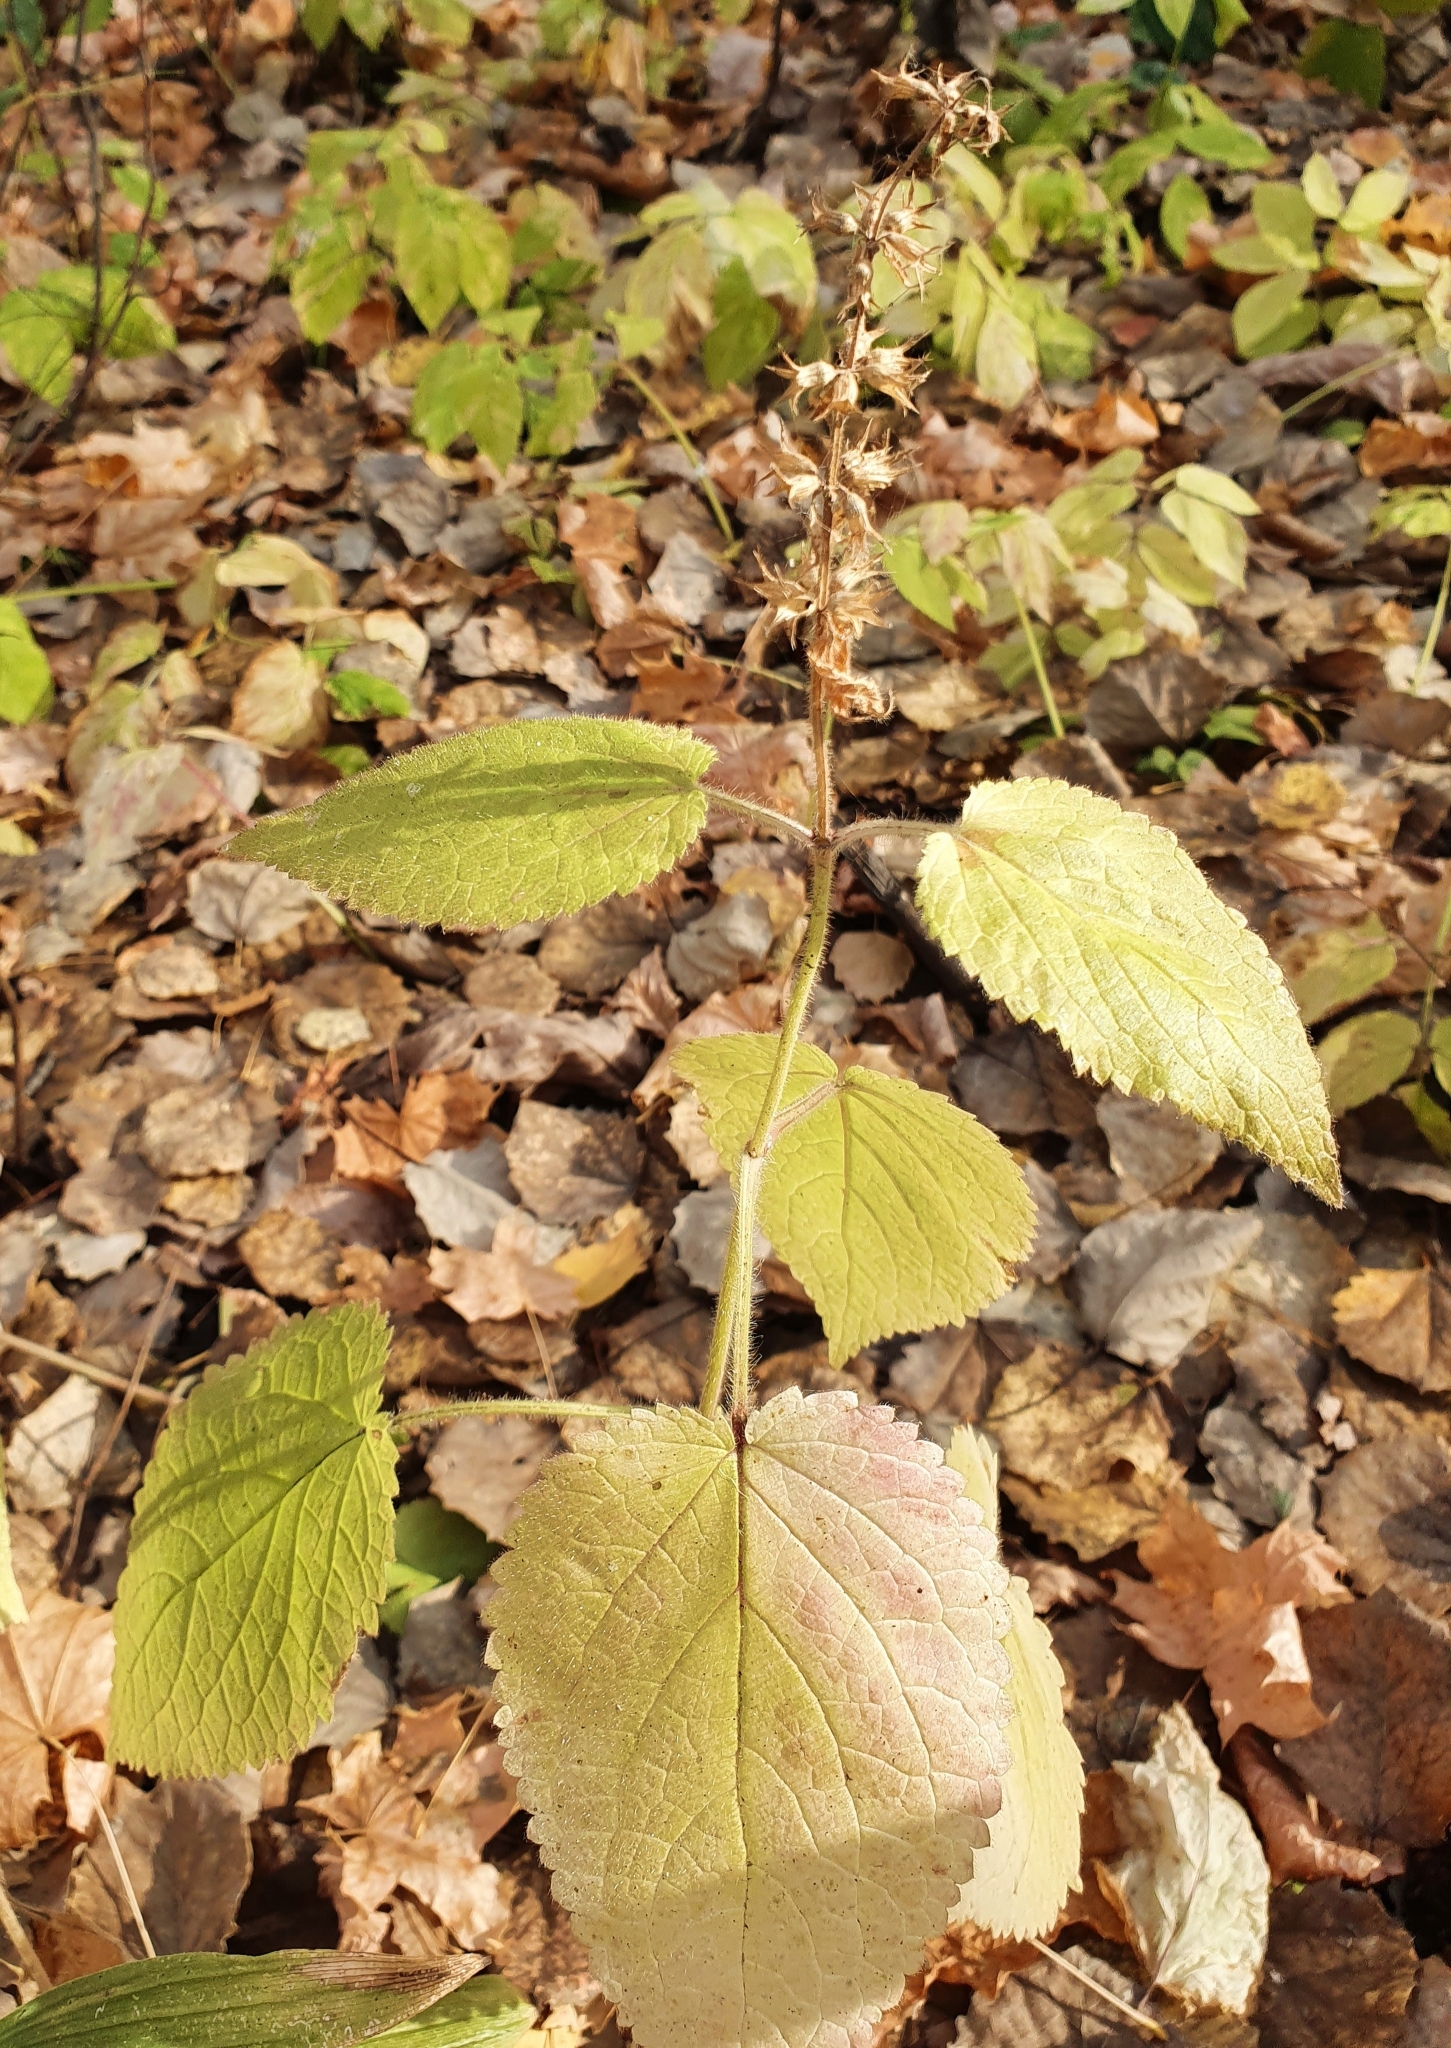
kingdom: Plantae
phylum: Tracheophyta
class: Magnoliopsida
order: Lamiales
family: Lamiaceae
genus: Stachys
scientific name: Stachys sylvatica
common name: Hedge woundwort
